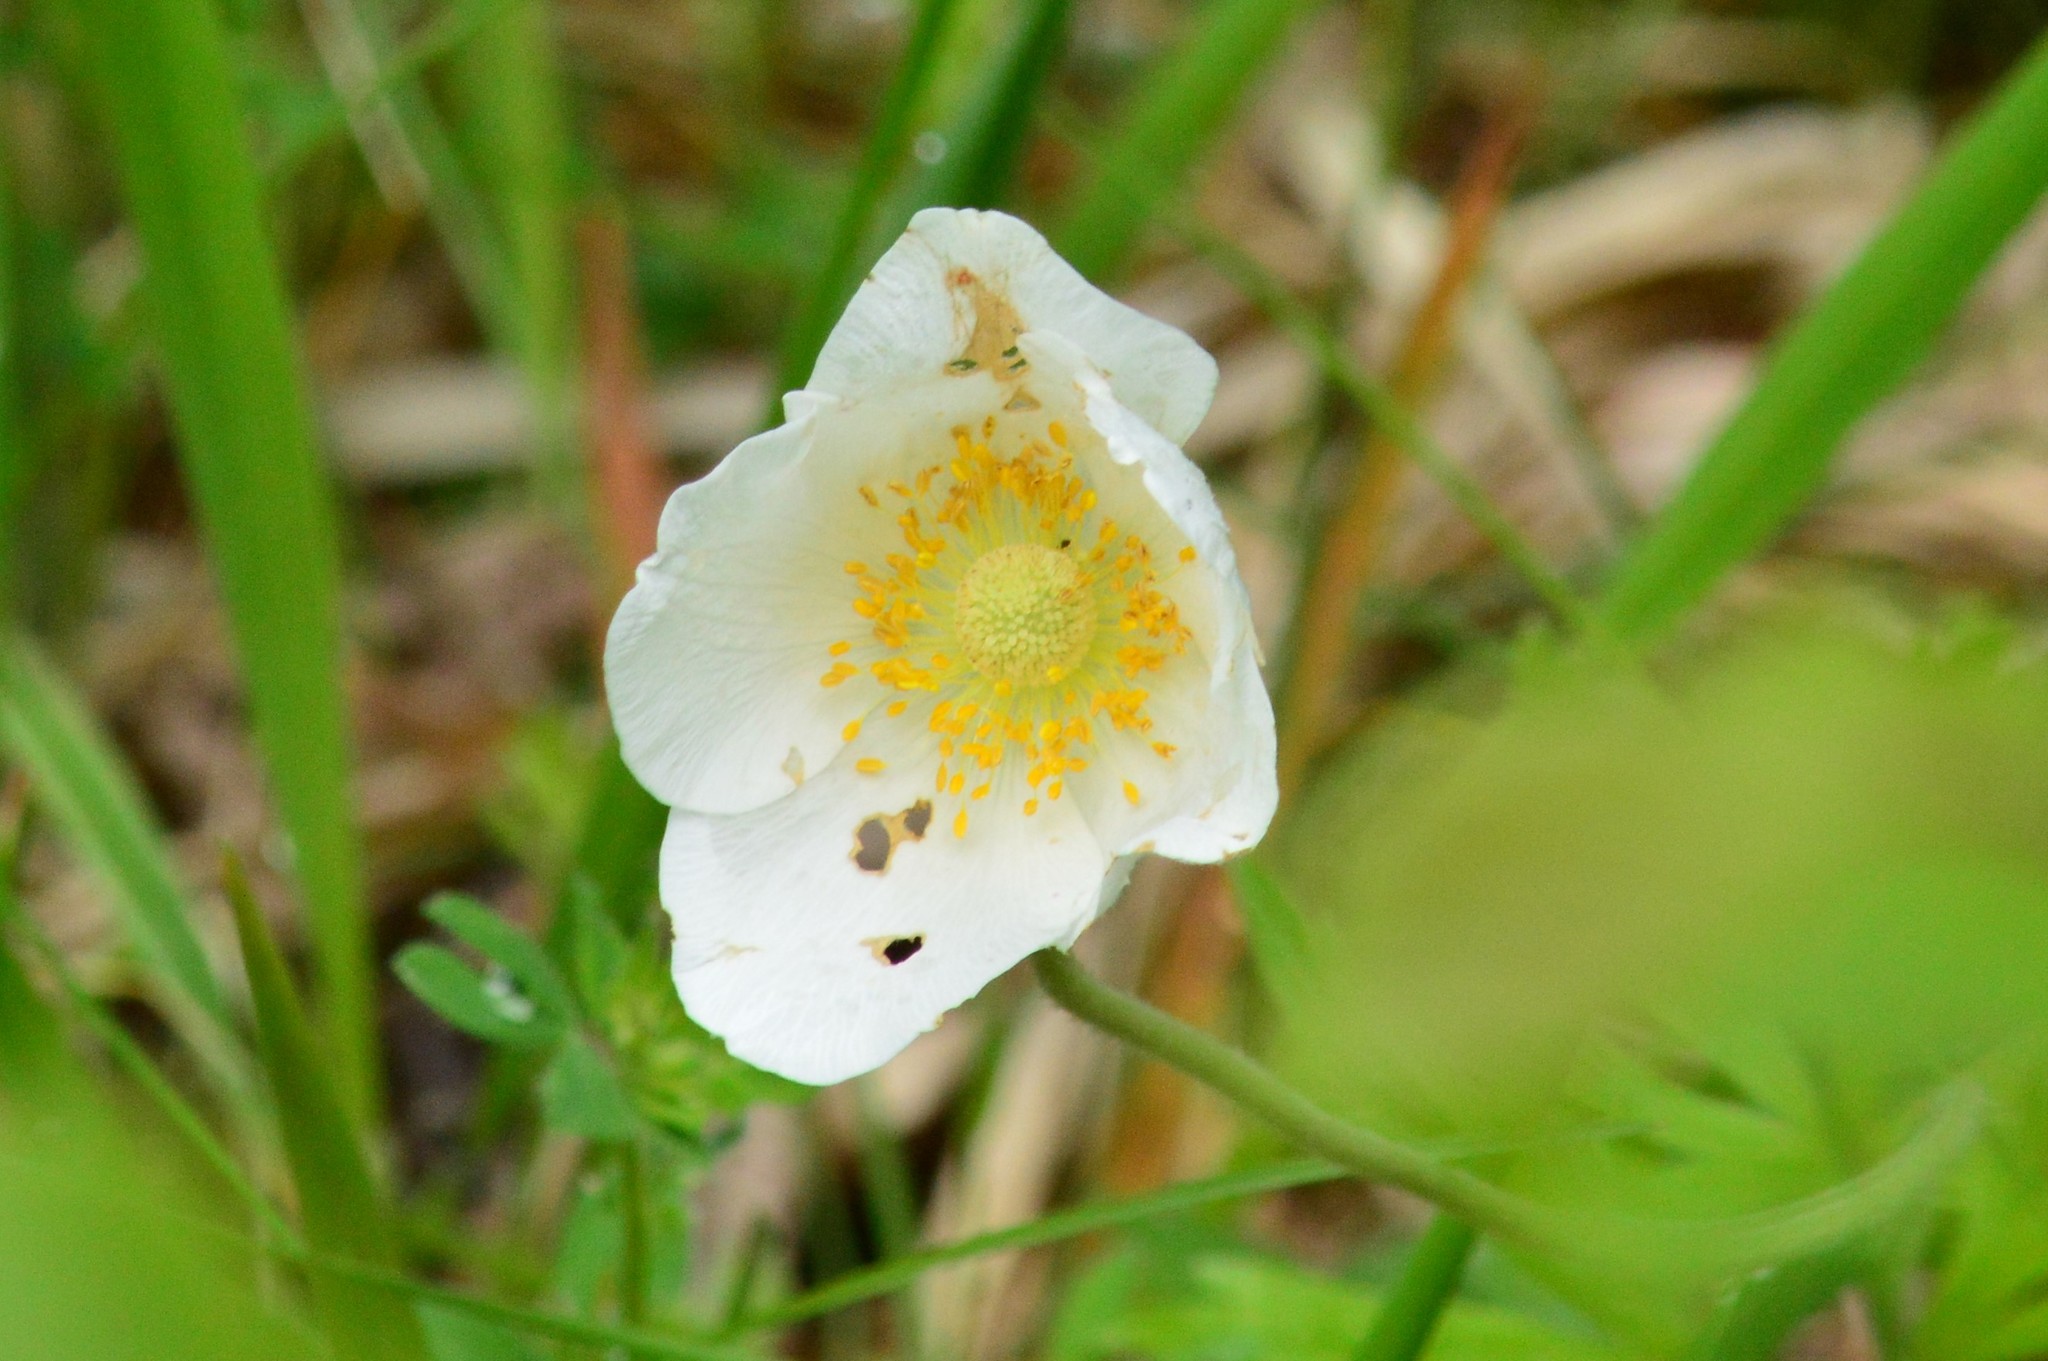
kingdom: Plantae
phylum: Tracheophyta
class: Magnoliopsida
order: Ranunculales
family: Ranunculaceae
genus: Anemone
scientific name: Anemone sylvestris
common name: Snowdrop anemone
